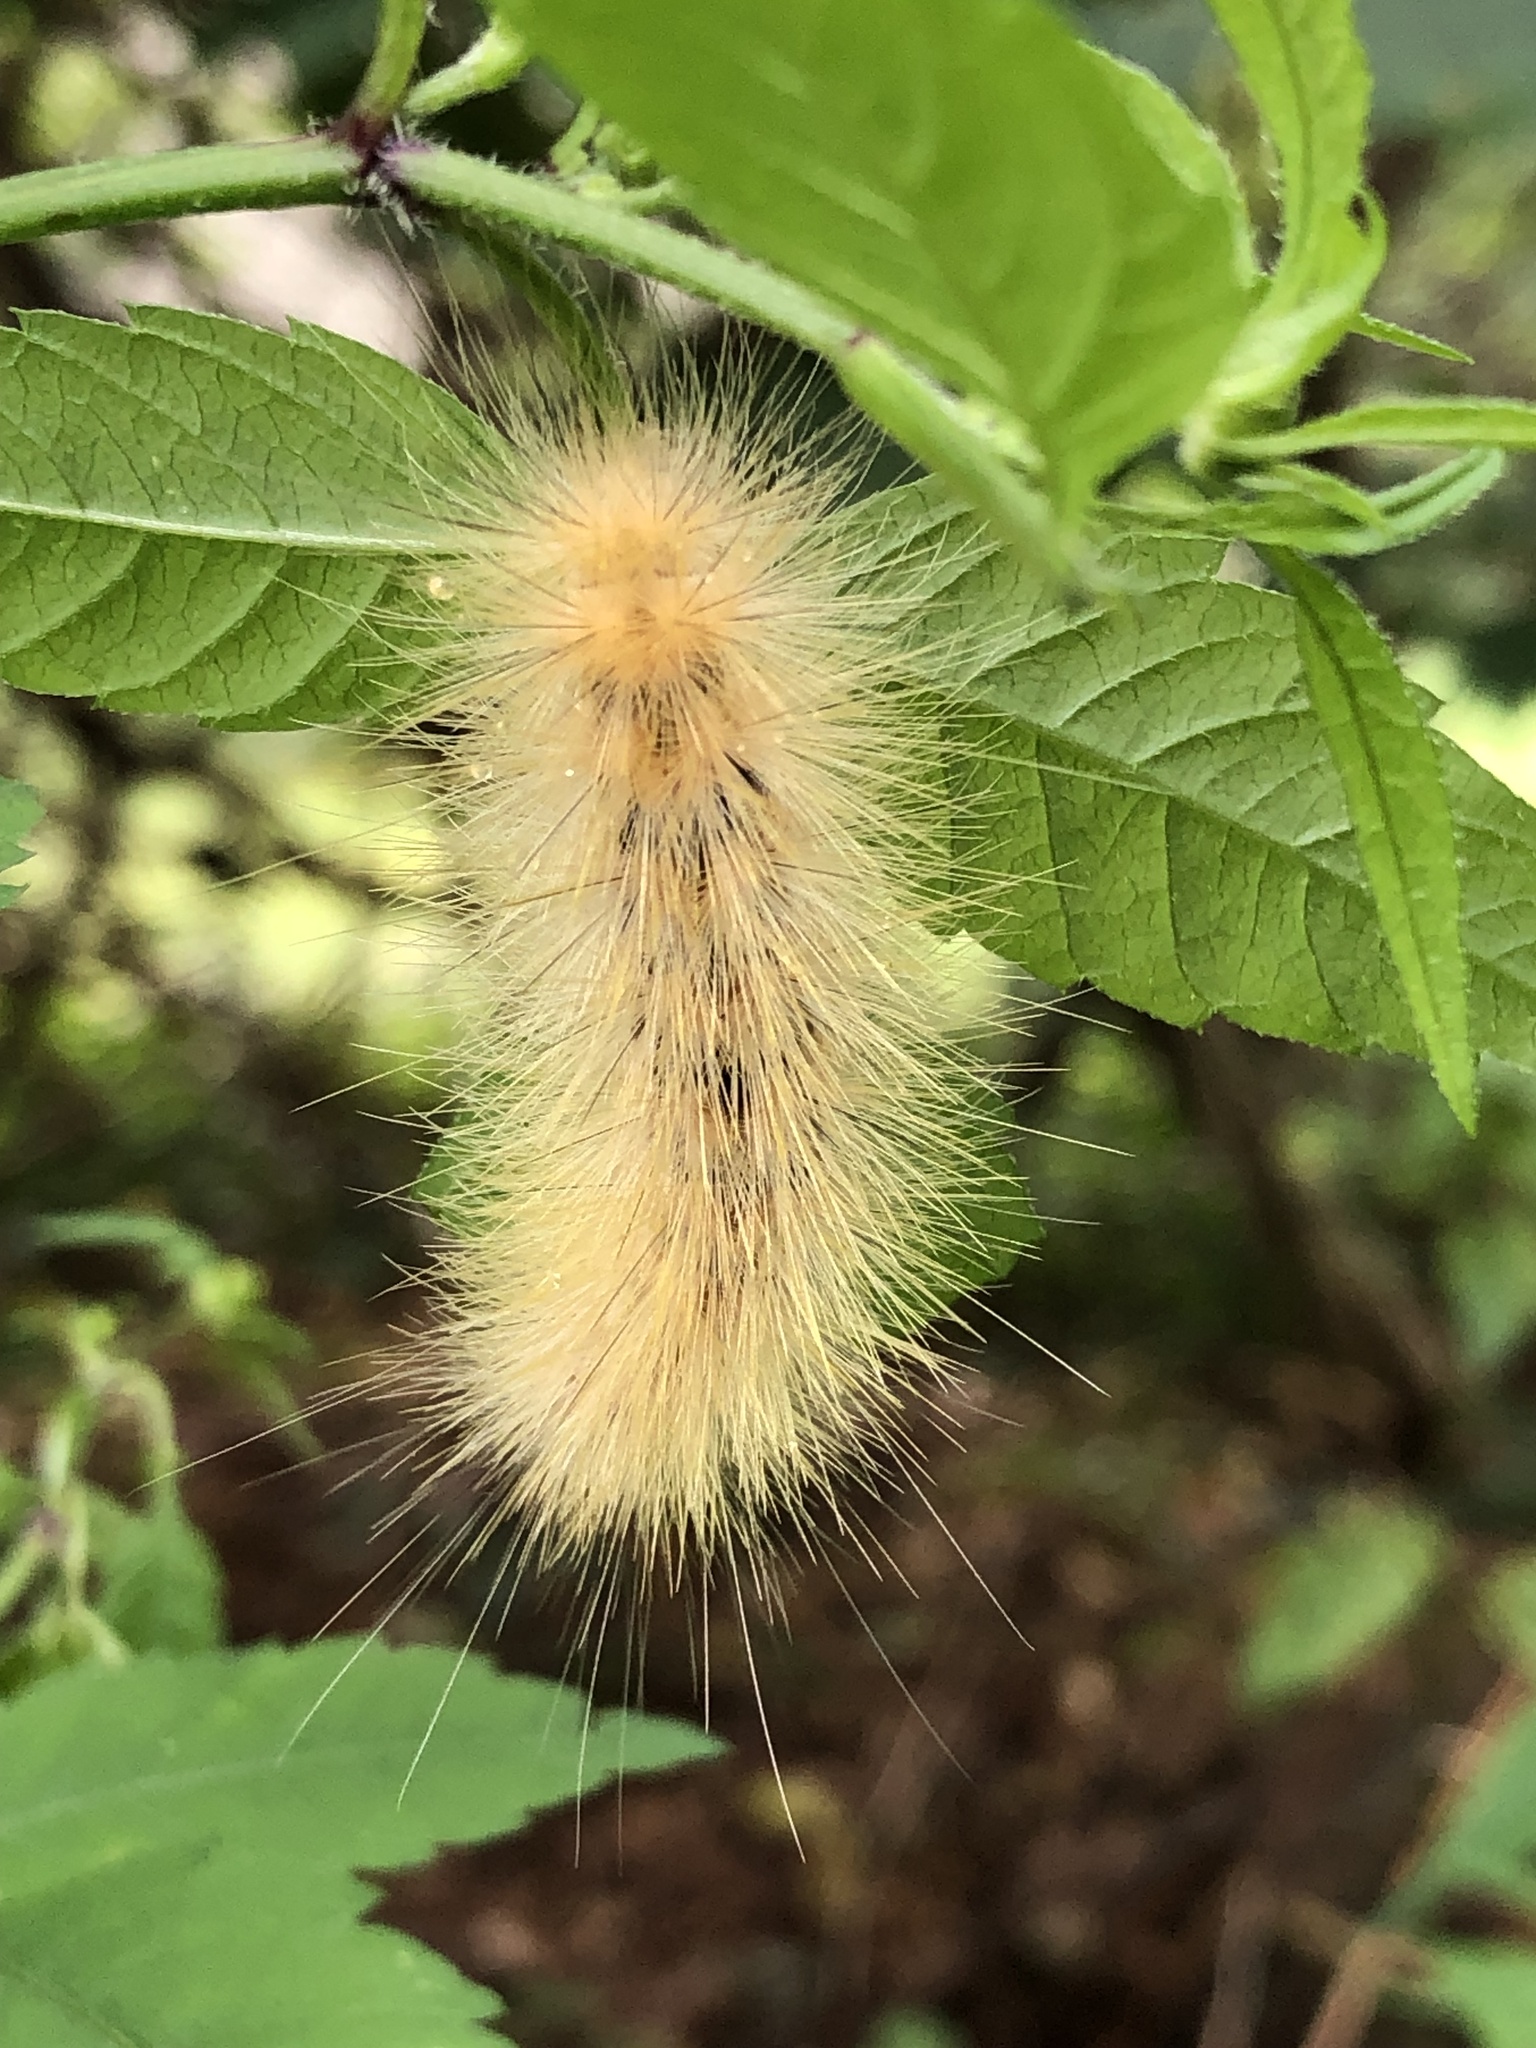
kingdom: Animalia
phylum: Arthropoda
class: Insecta
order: Lepidoptera
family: Erebidae
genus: Spilosoma
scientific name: Spilosoma virginica
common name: Virginia tiger moth
